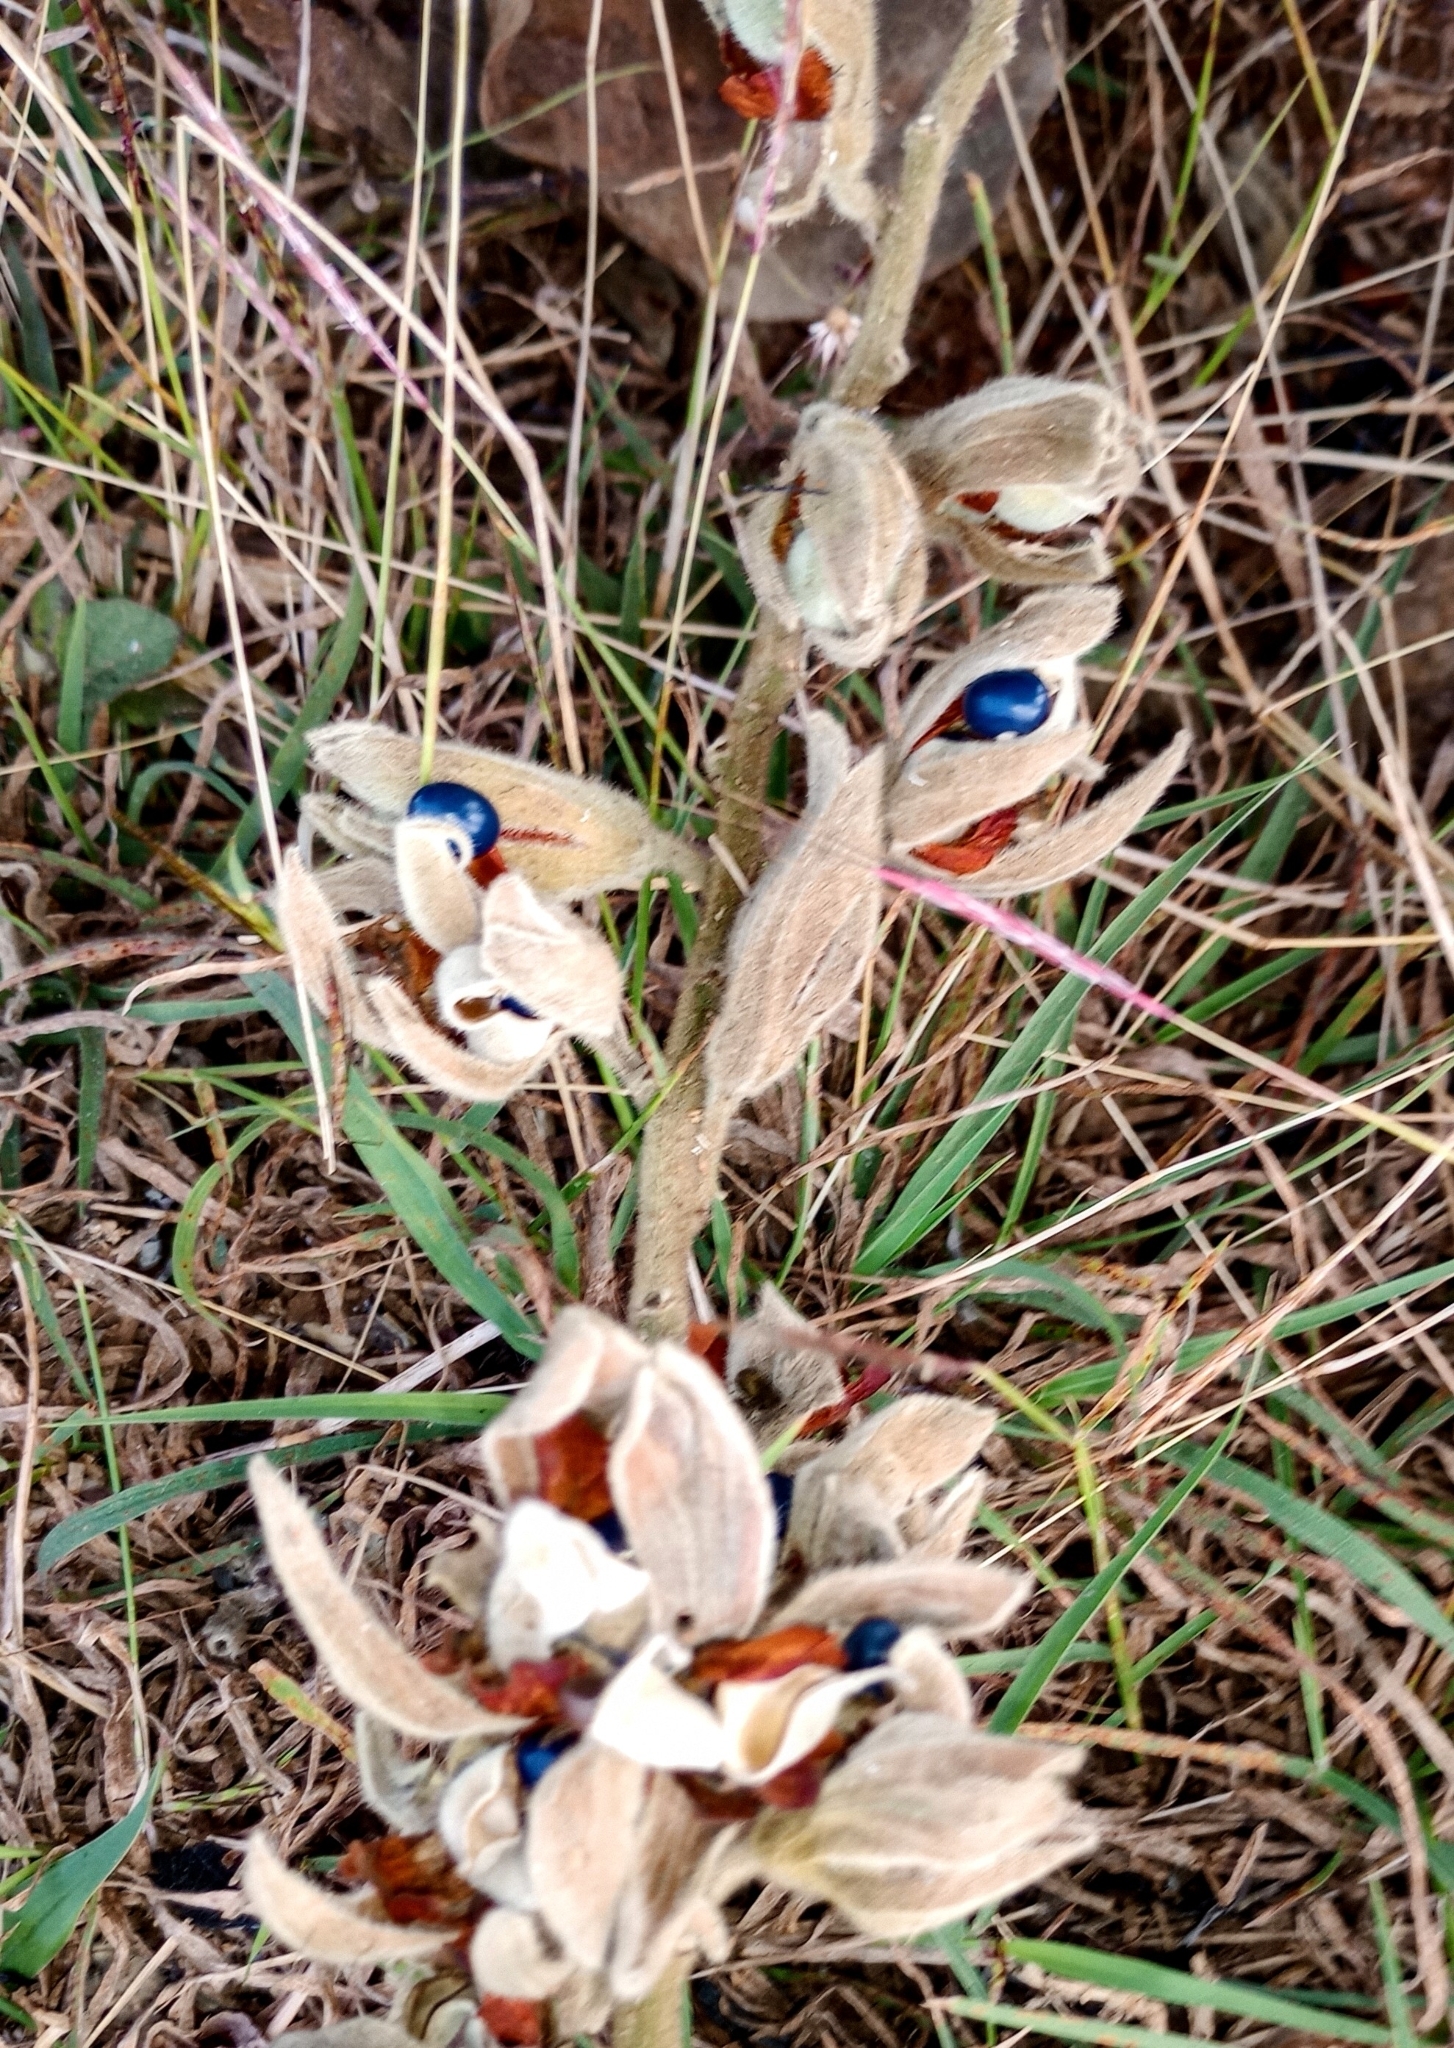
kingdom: Plantae
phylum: Tracheophyta
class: Magnoliopsida
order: Fabales
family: Fabaceae
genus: Rhynchosia
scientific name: Rhynchosia hirta
